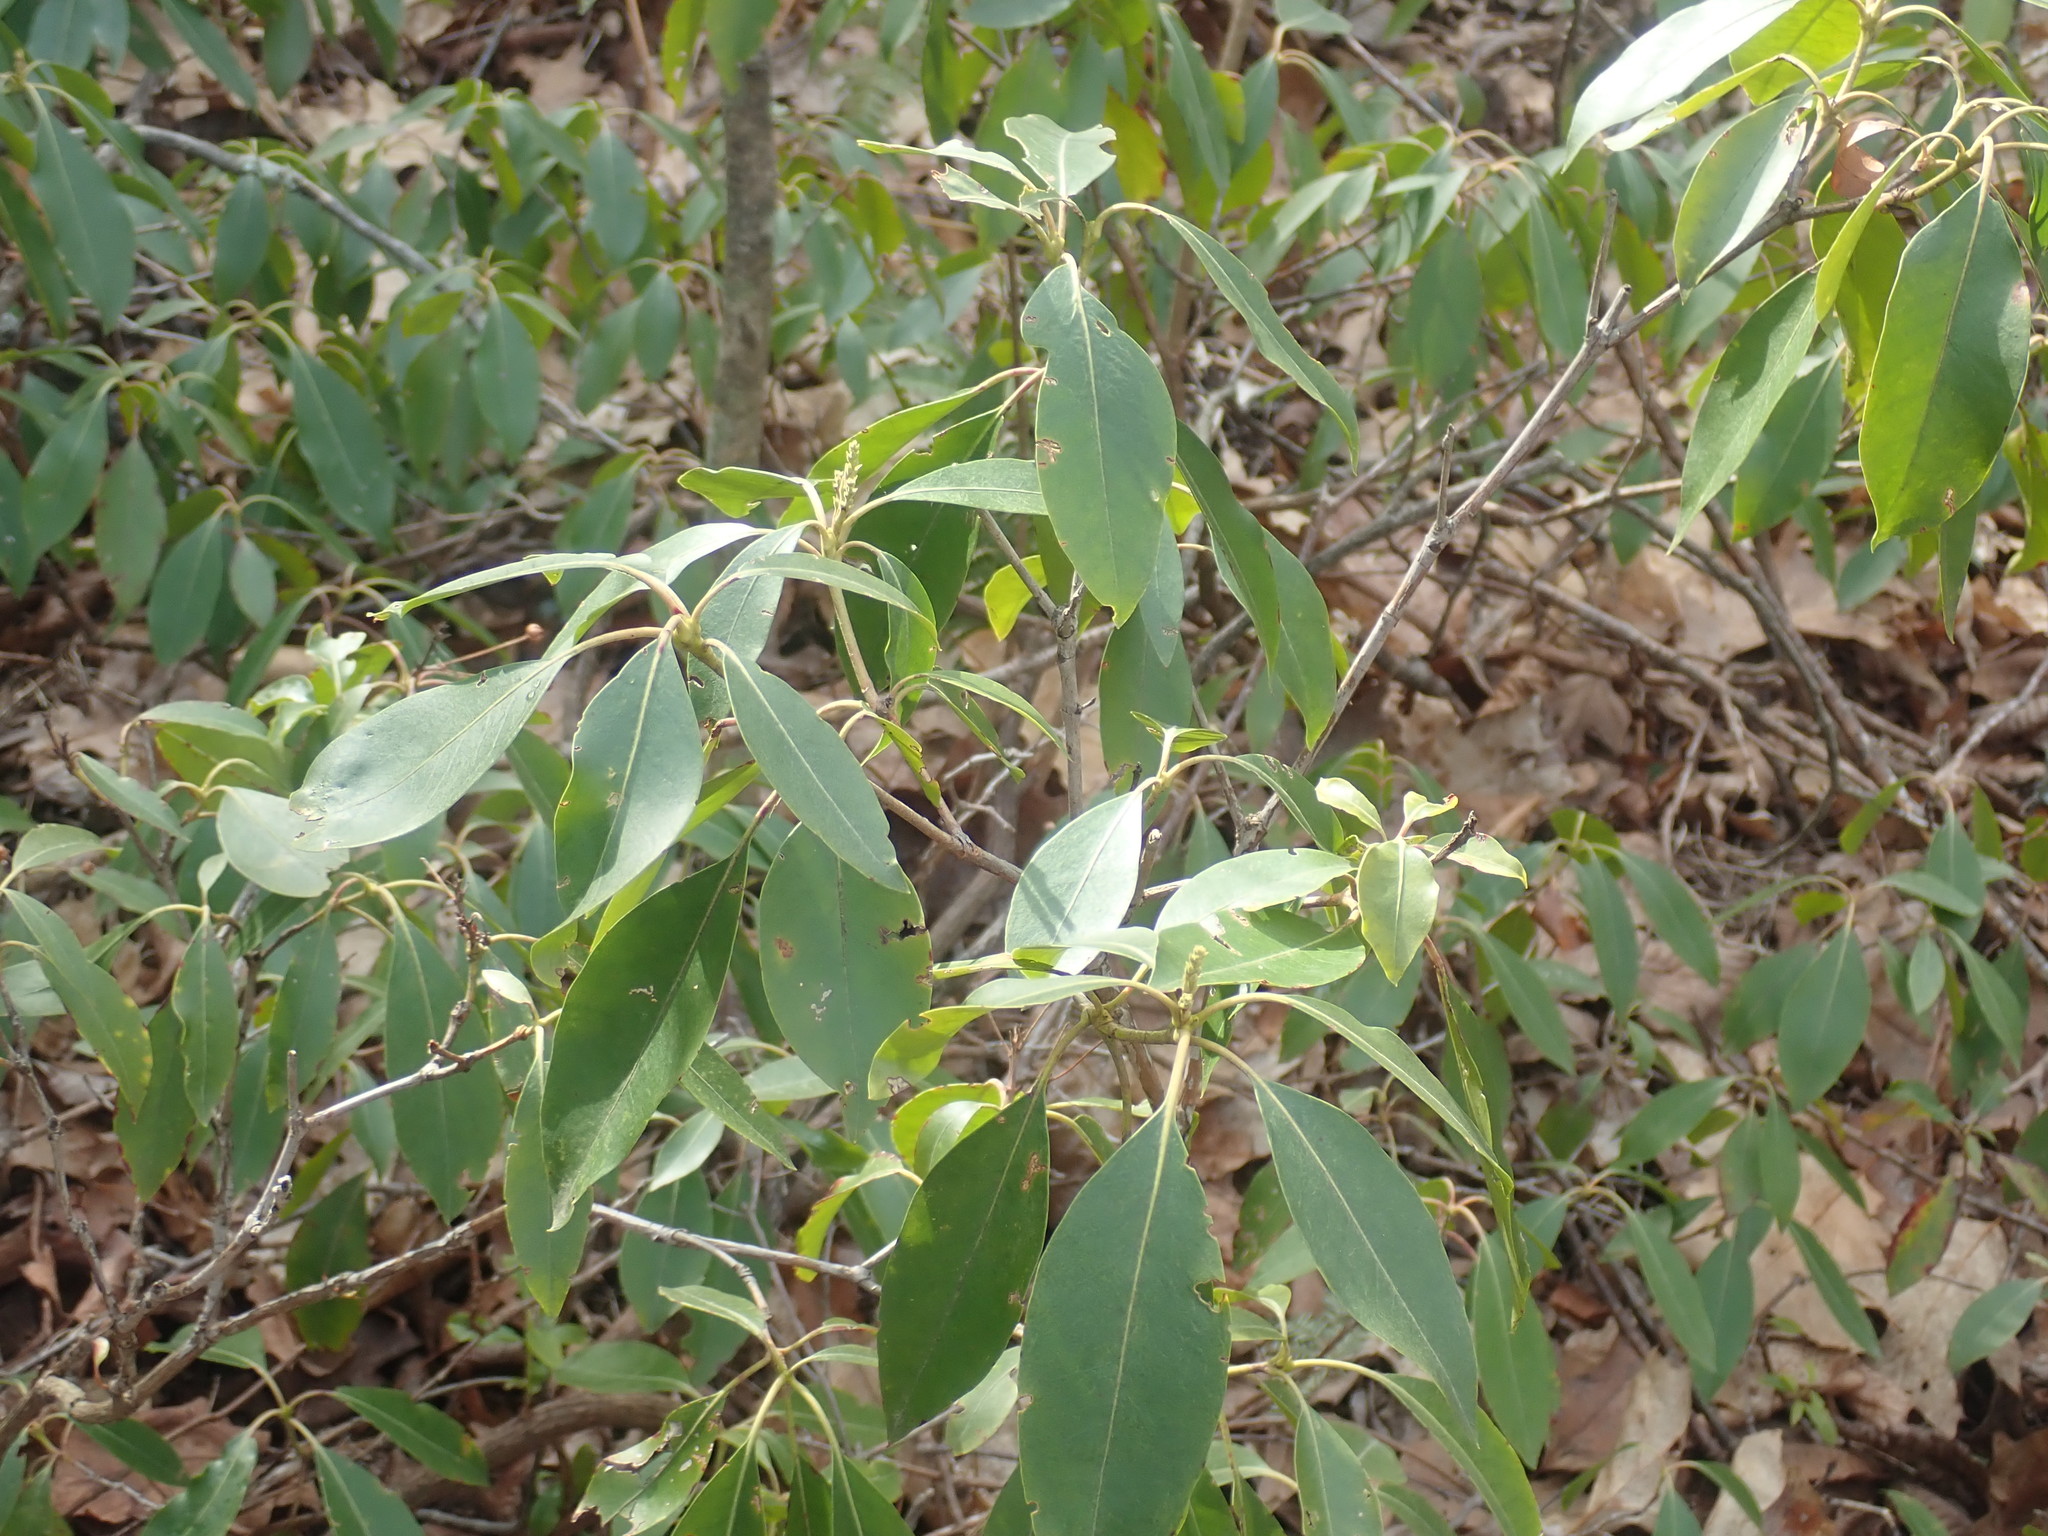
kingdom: Plantae
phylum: Tracheophyta
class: Magnoliopsida
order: Ericales
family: Ericaceae
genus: Kalmia
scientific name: Kalmia latifolia
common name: Mountain-laurel
